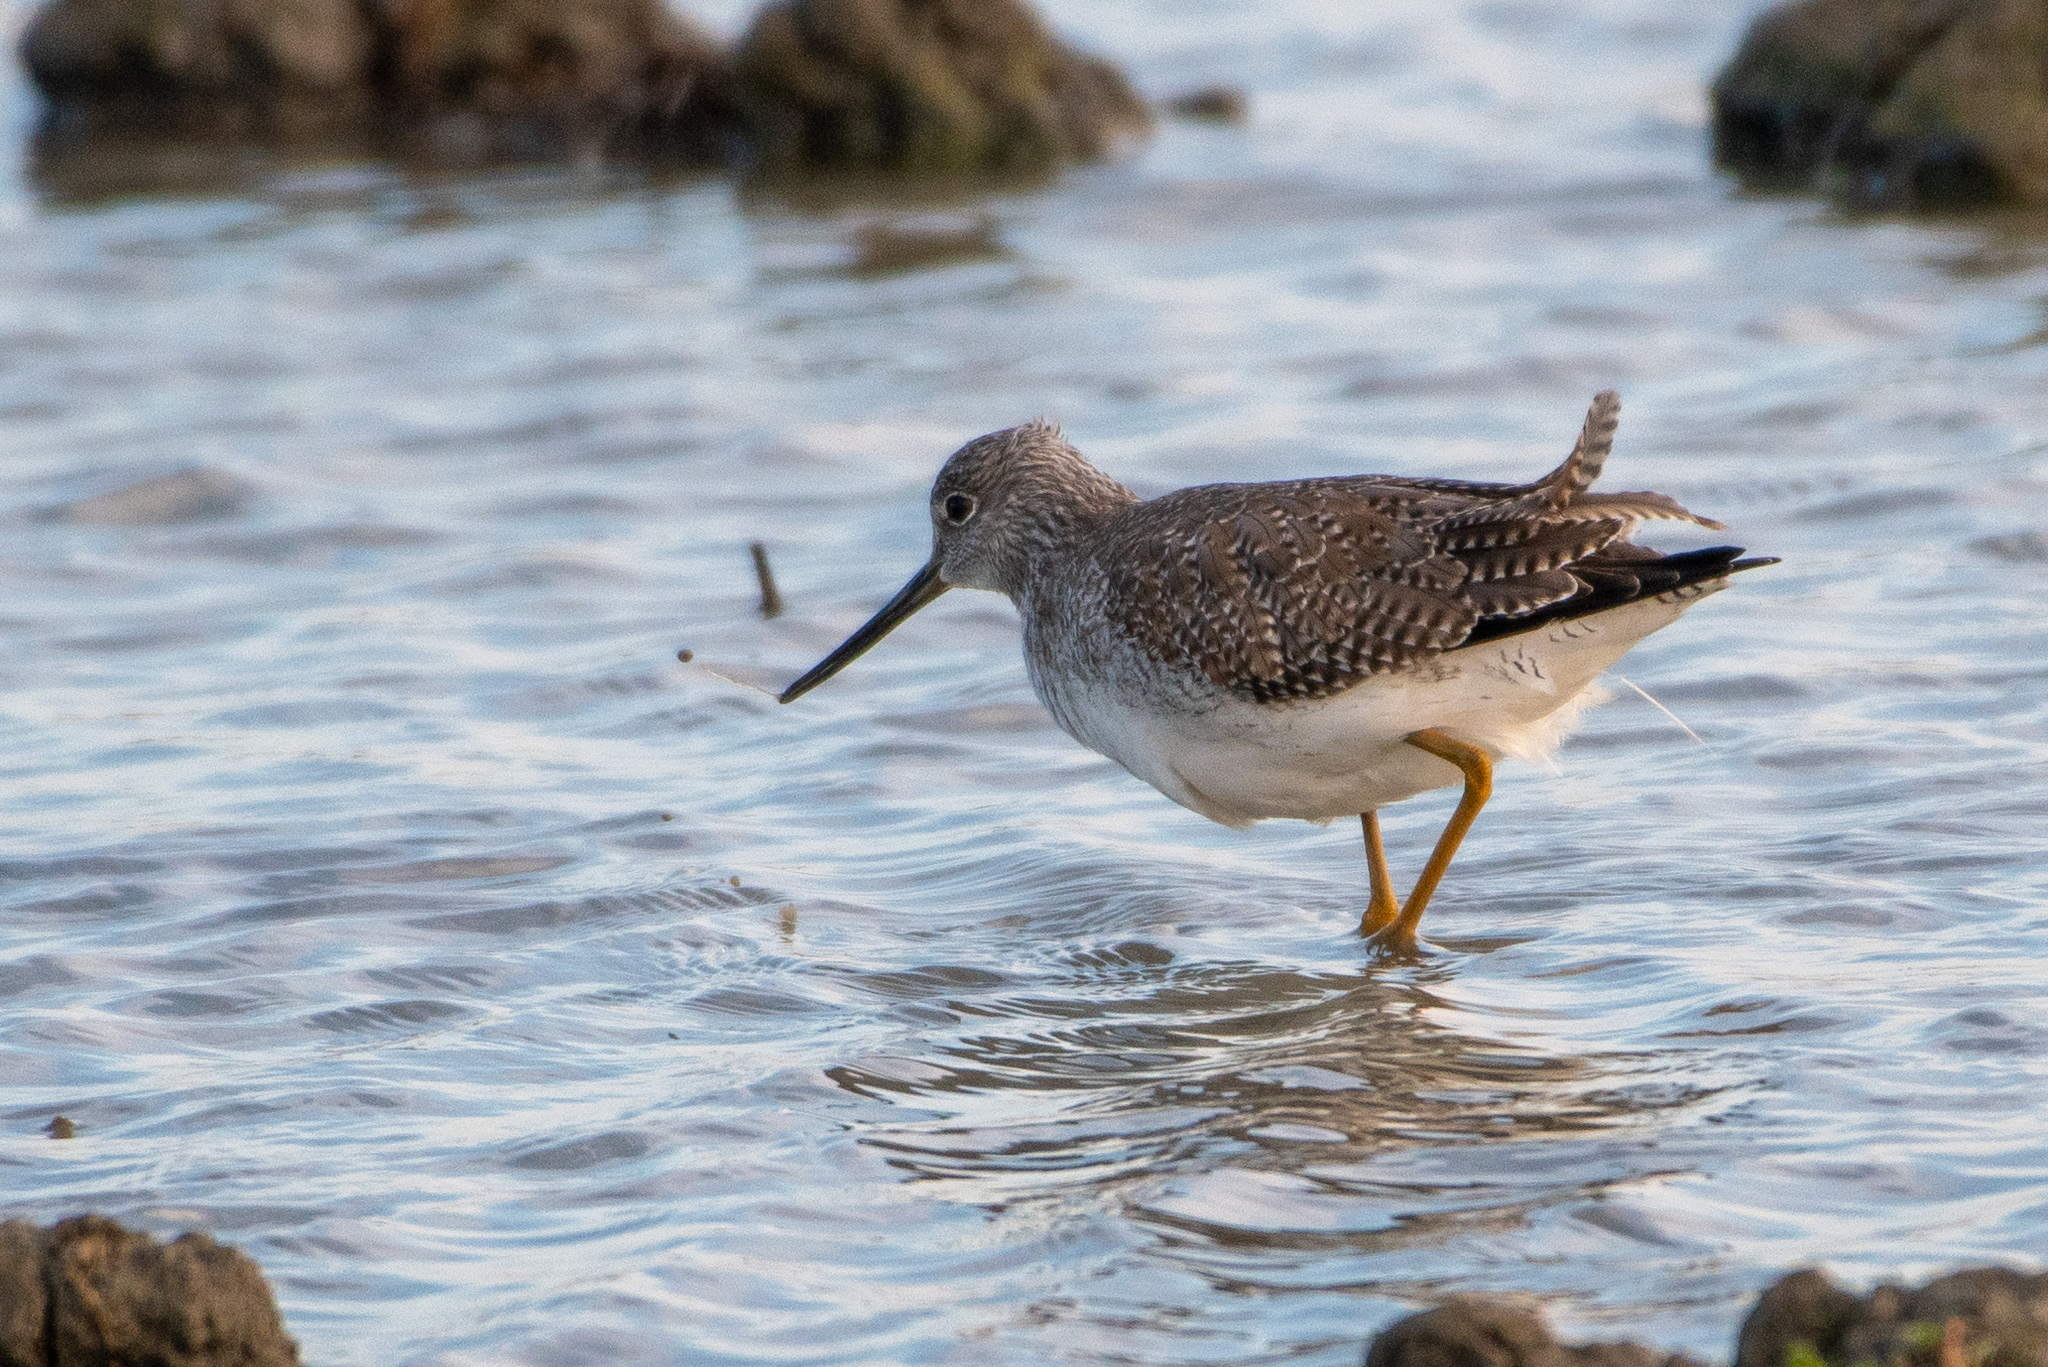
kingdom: Animalia
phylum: Chordata
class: Aves
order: Charadriiformes
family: Scolopacidae
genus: Tringa
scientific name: Tringa melanoleuca
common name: Greater yellowlegs
